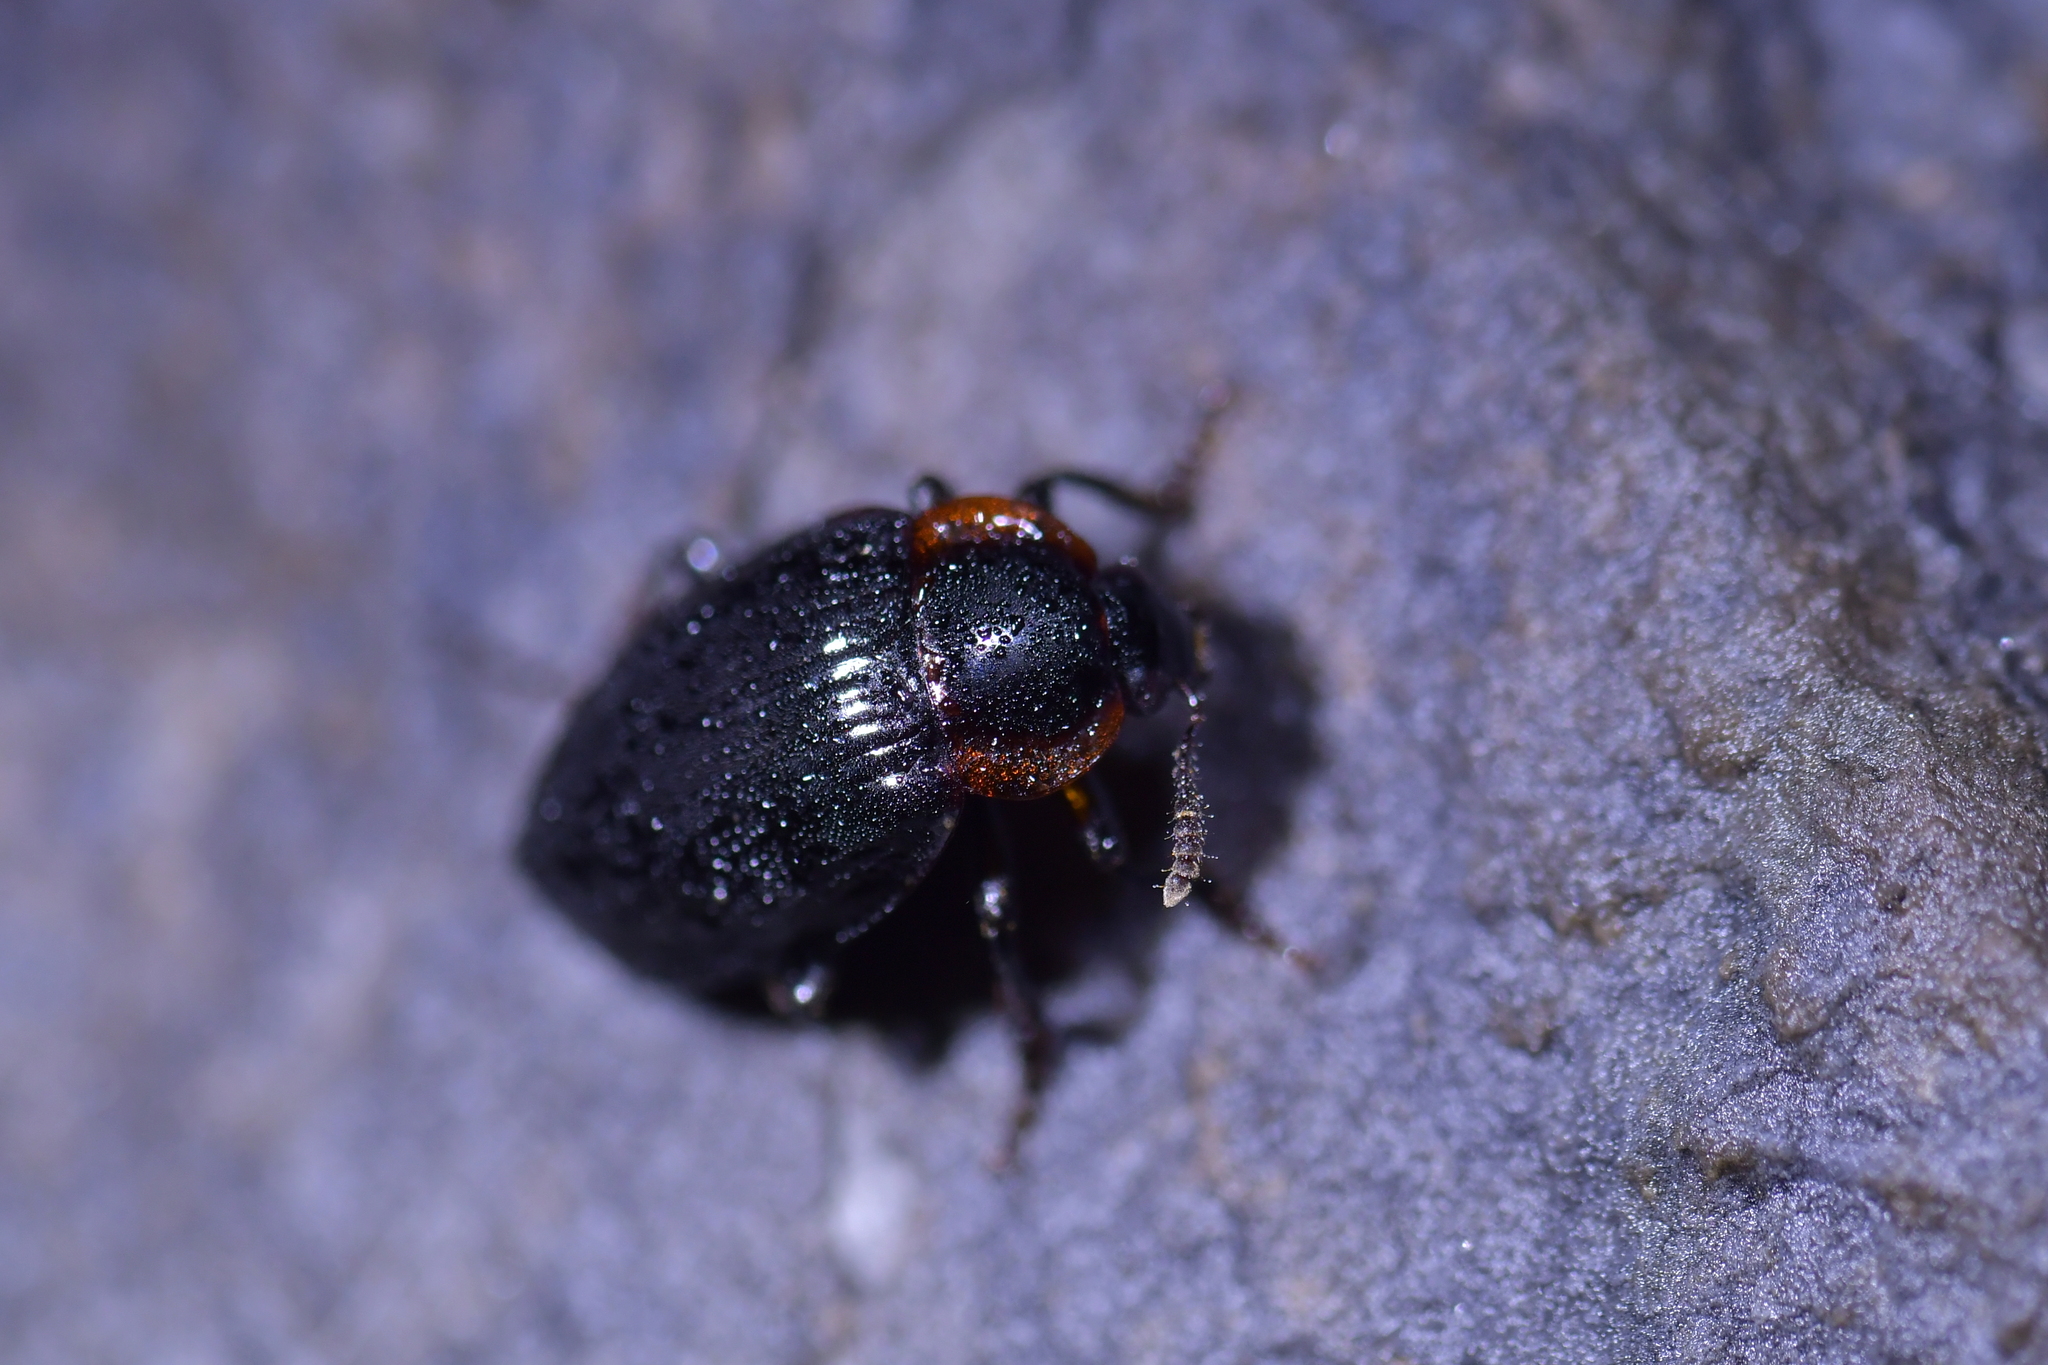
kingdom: Animalia
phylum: Arthropoda
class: Insecta
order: Coleoptera
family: Agyrtidae
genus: Zeanecrophilus
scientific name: Zeanecrophilus prolongatus
